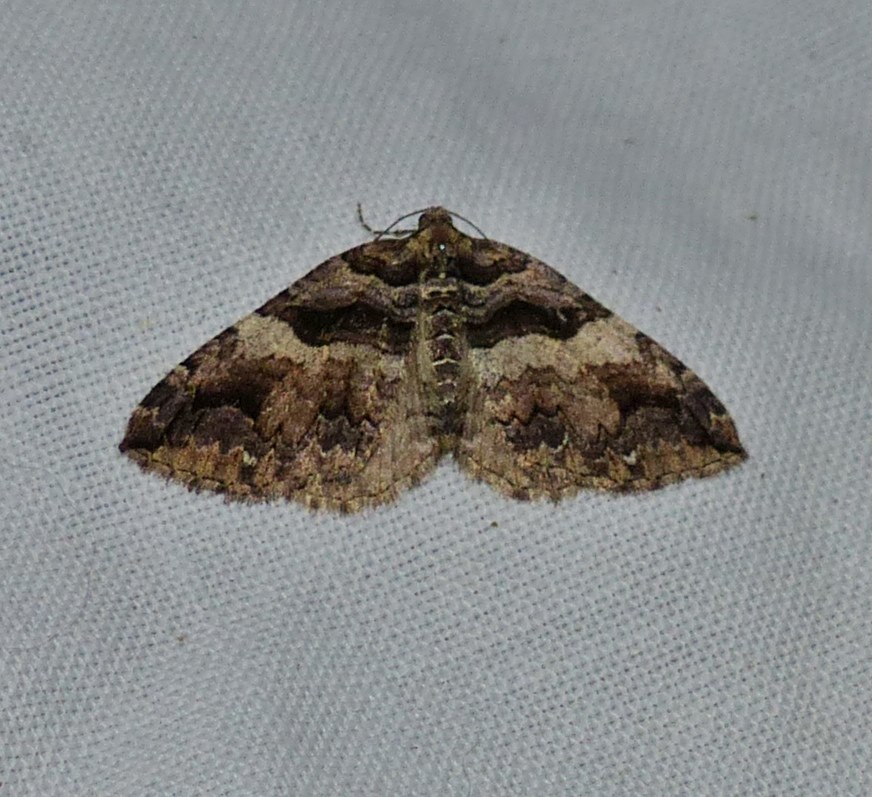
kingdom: Animalia
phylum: Arthropoda
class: Insecta
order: Lepidoptera
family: Geometridae
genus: Anticlea
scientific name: Anticlea vasiliata
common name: Variable carpet
